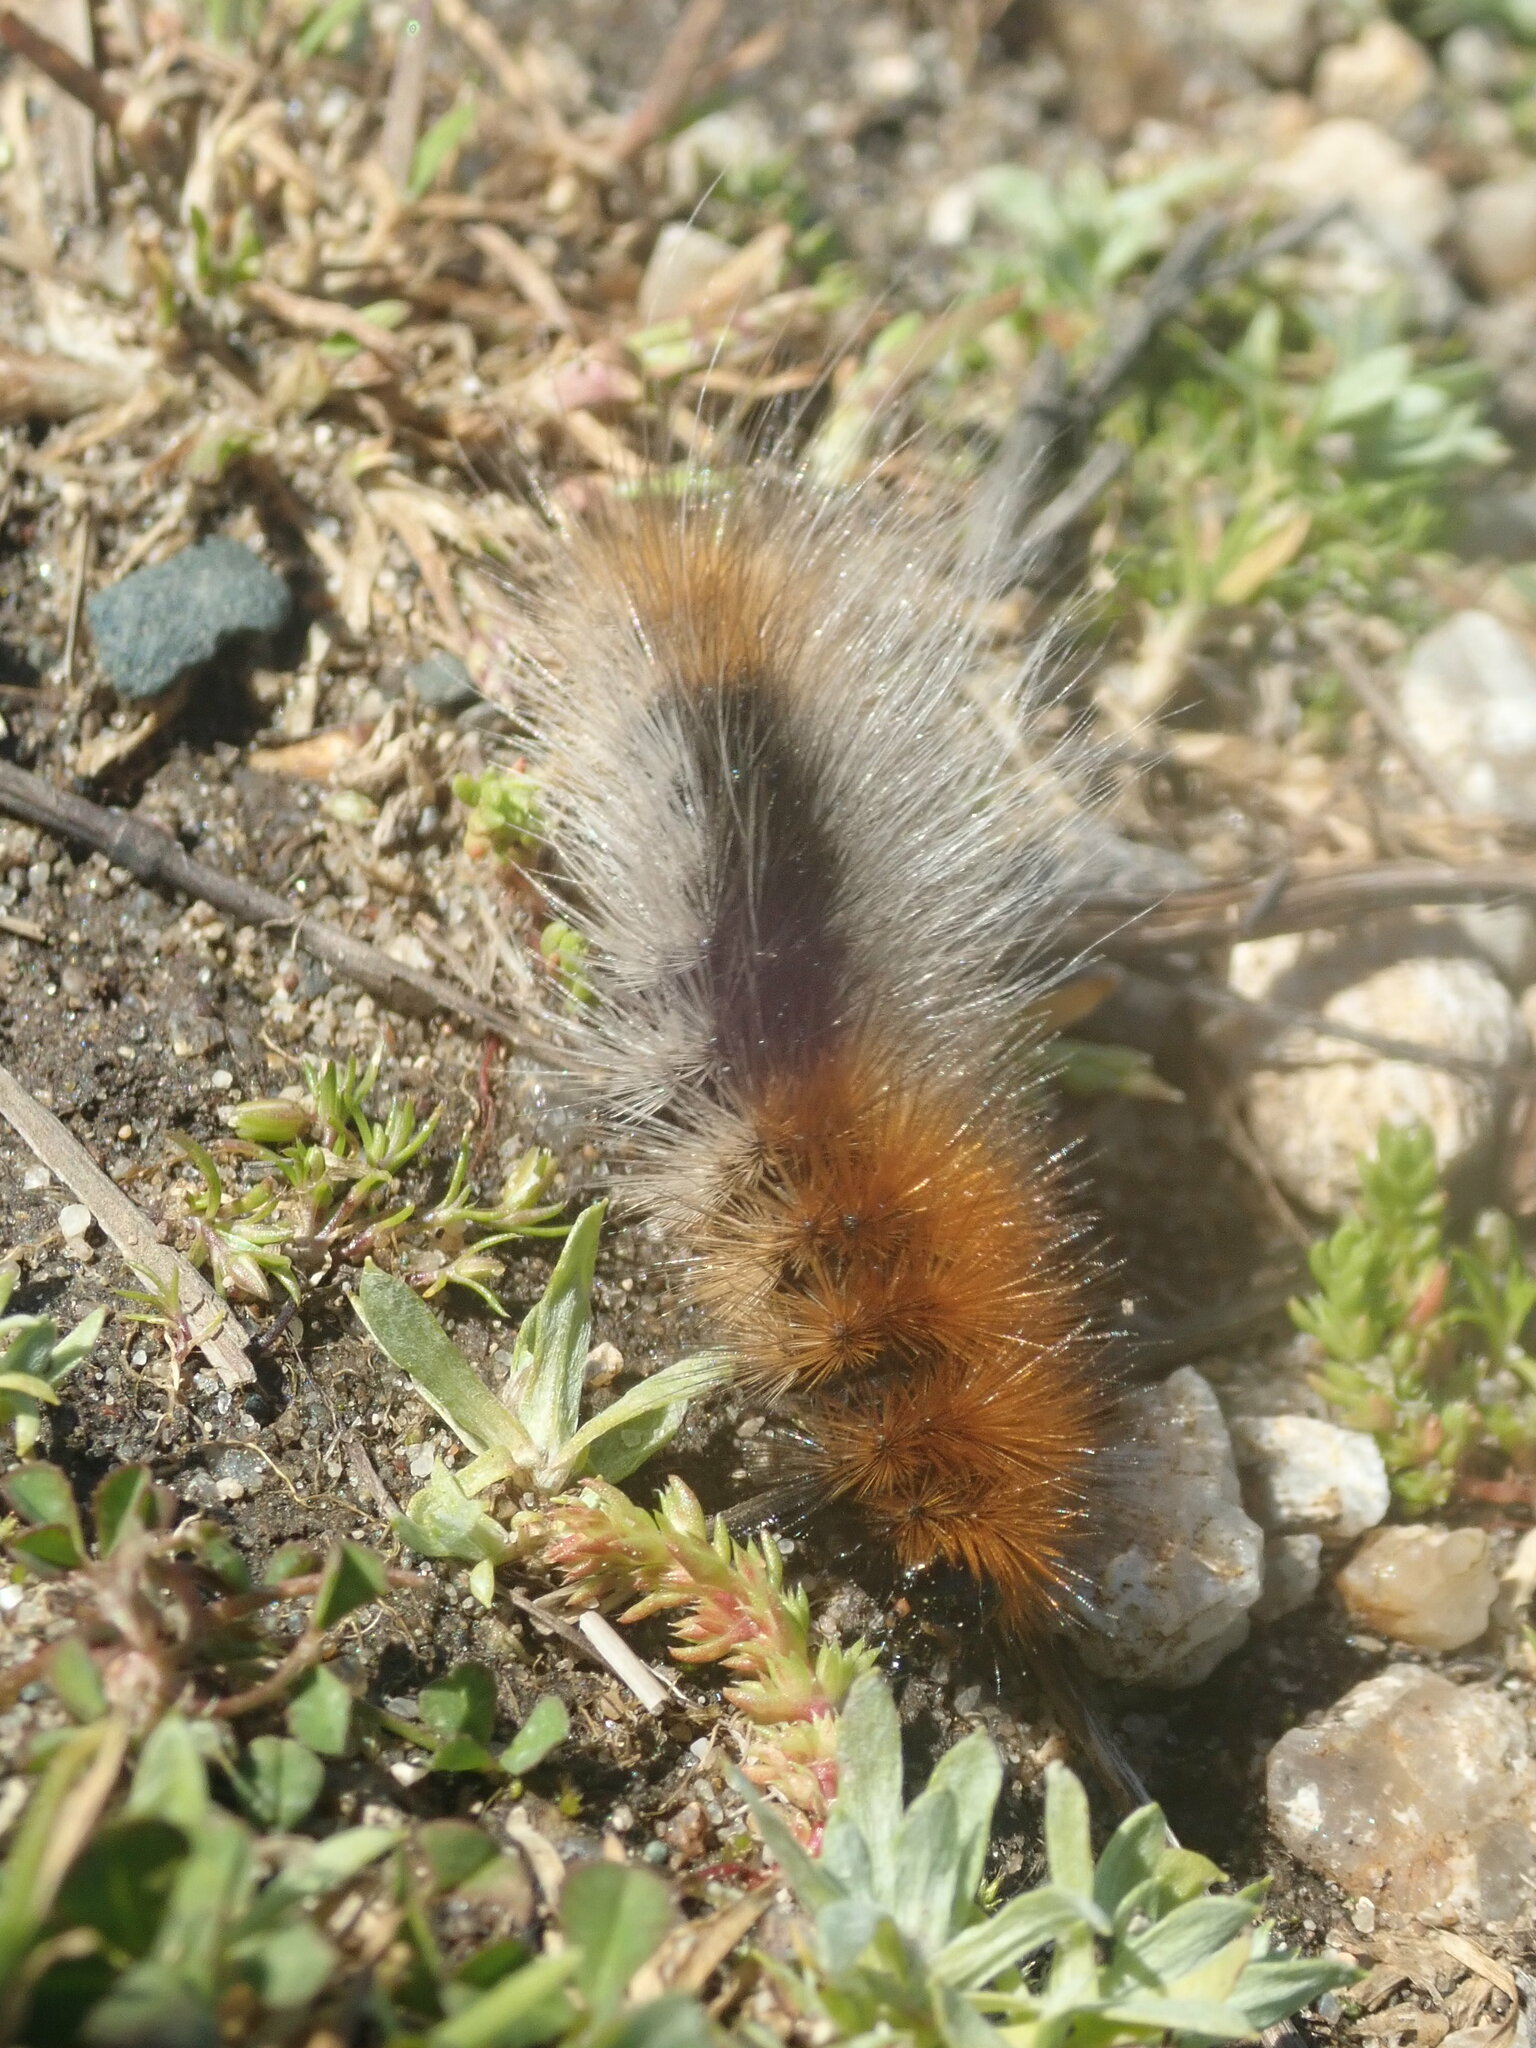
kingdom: Animalia
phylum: Arthropoda
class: Insecta
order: Lepidoptera
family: Erebidae
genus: Arctia
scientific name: Arctia tigrina
